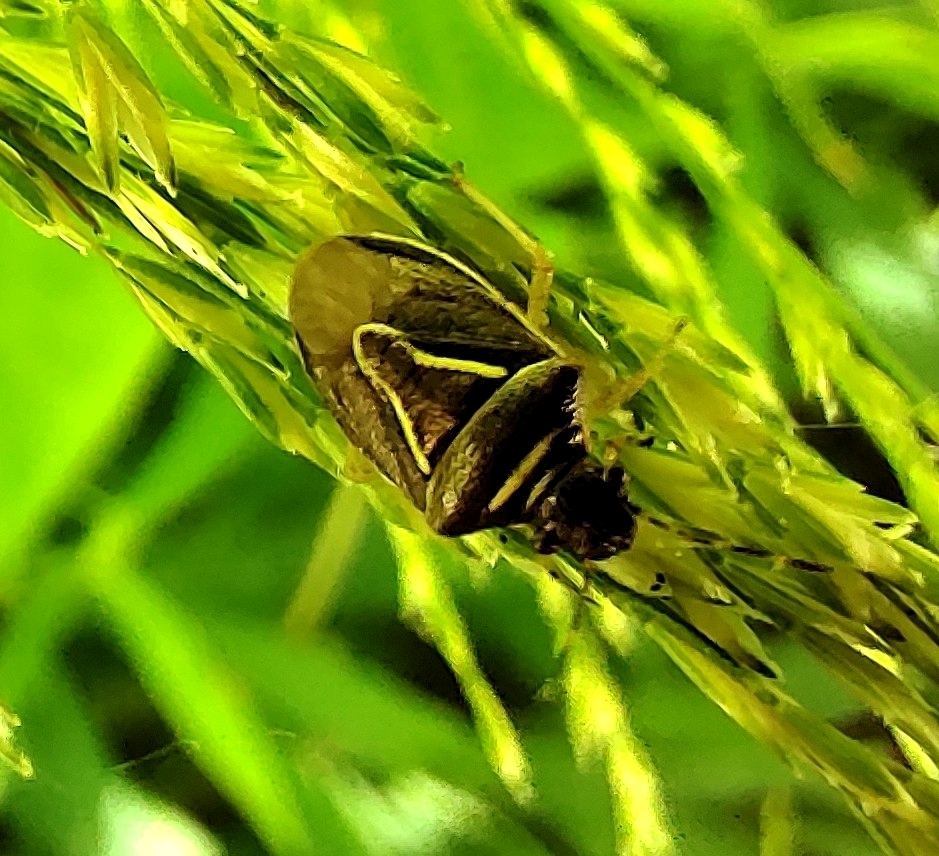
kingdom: Animalia
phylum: Arthropoda
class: Insecta
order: Hemiptera
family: Pentatomidae
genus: Mormidea
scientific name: Mormidea lugens
